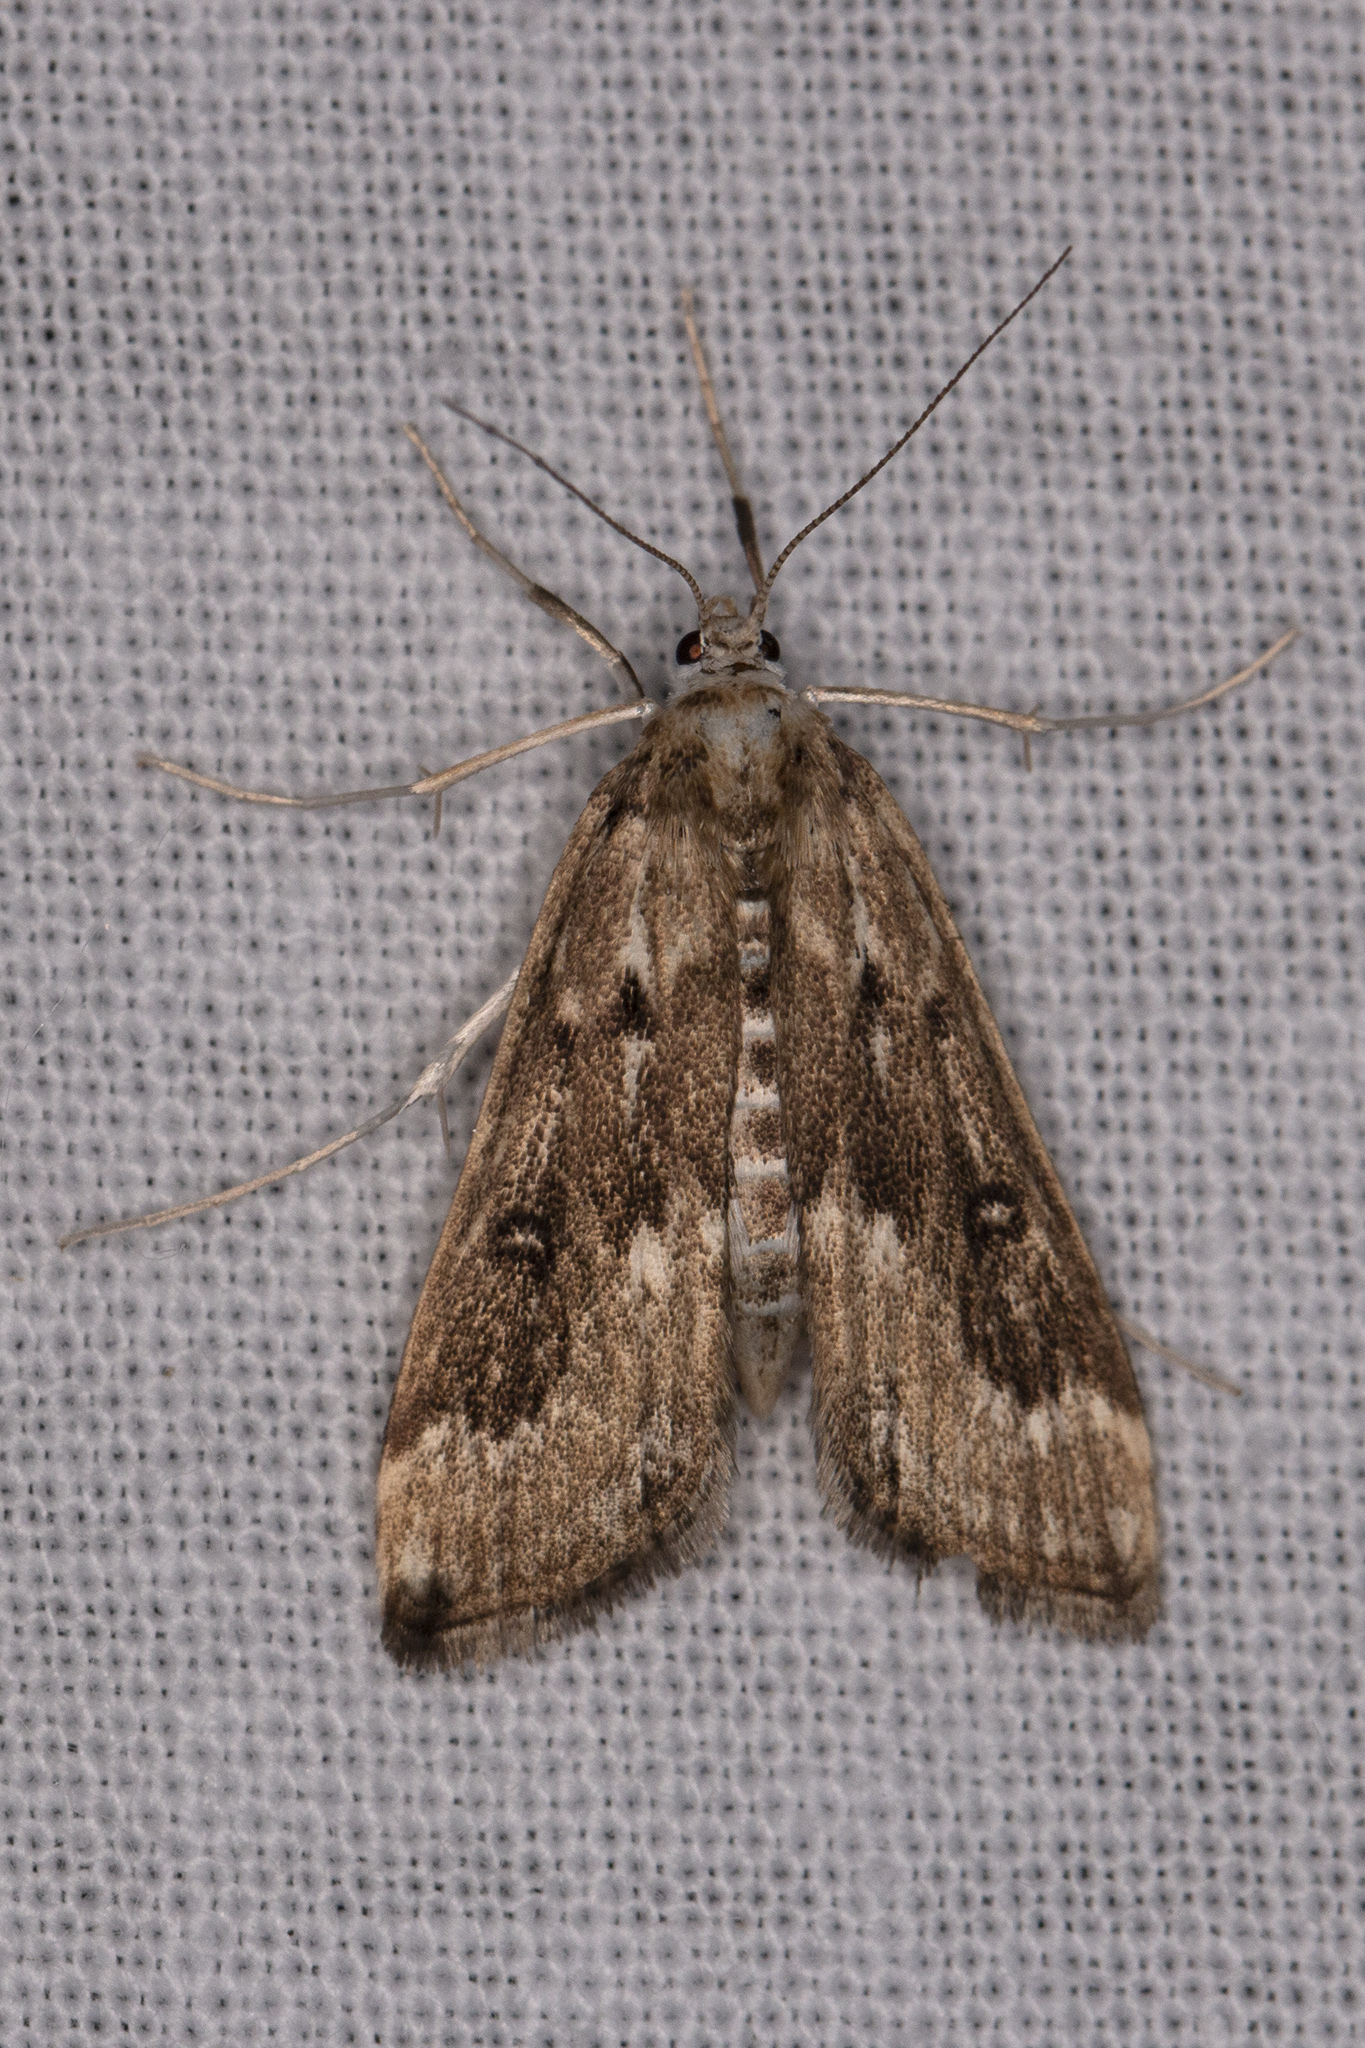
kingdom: Animalia
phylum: Arthropoda
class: Insecta
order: Lepidoptera
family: Crambidae
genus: Parapoynx
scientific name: Parapoynx stratiotata
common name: Ringed china-mark
